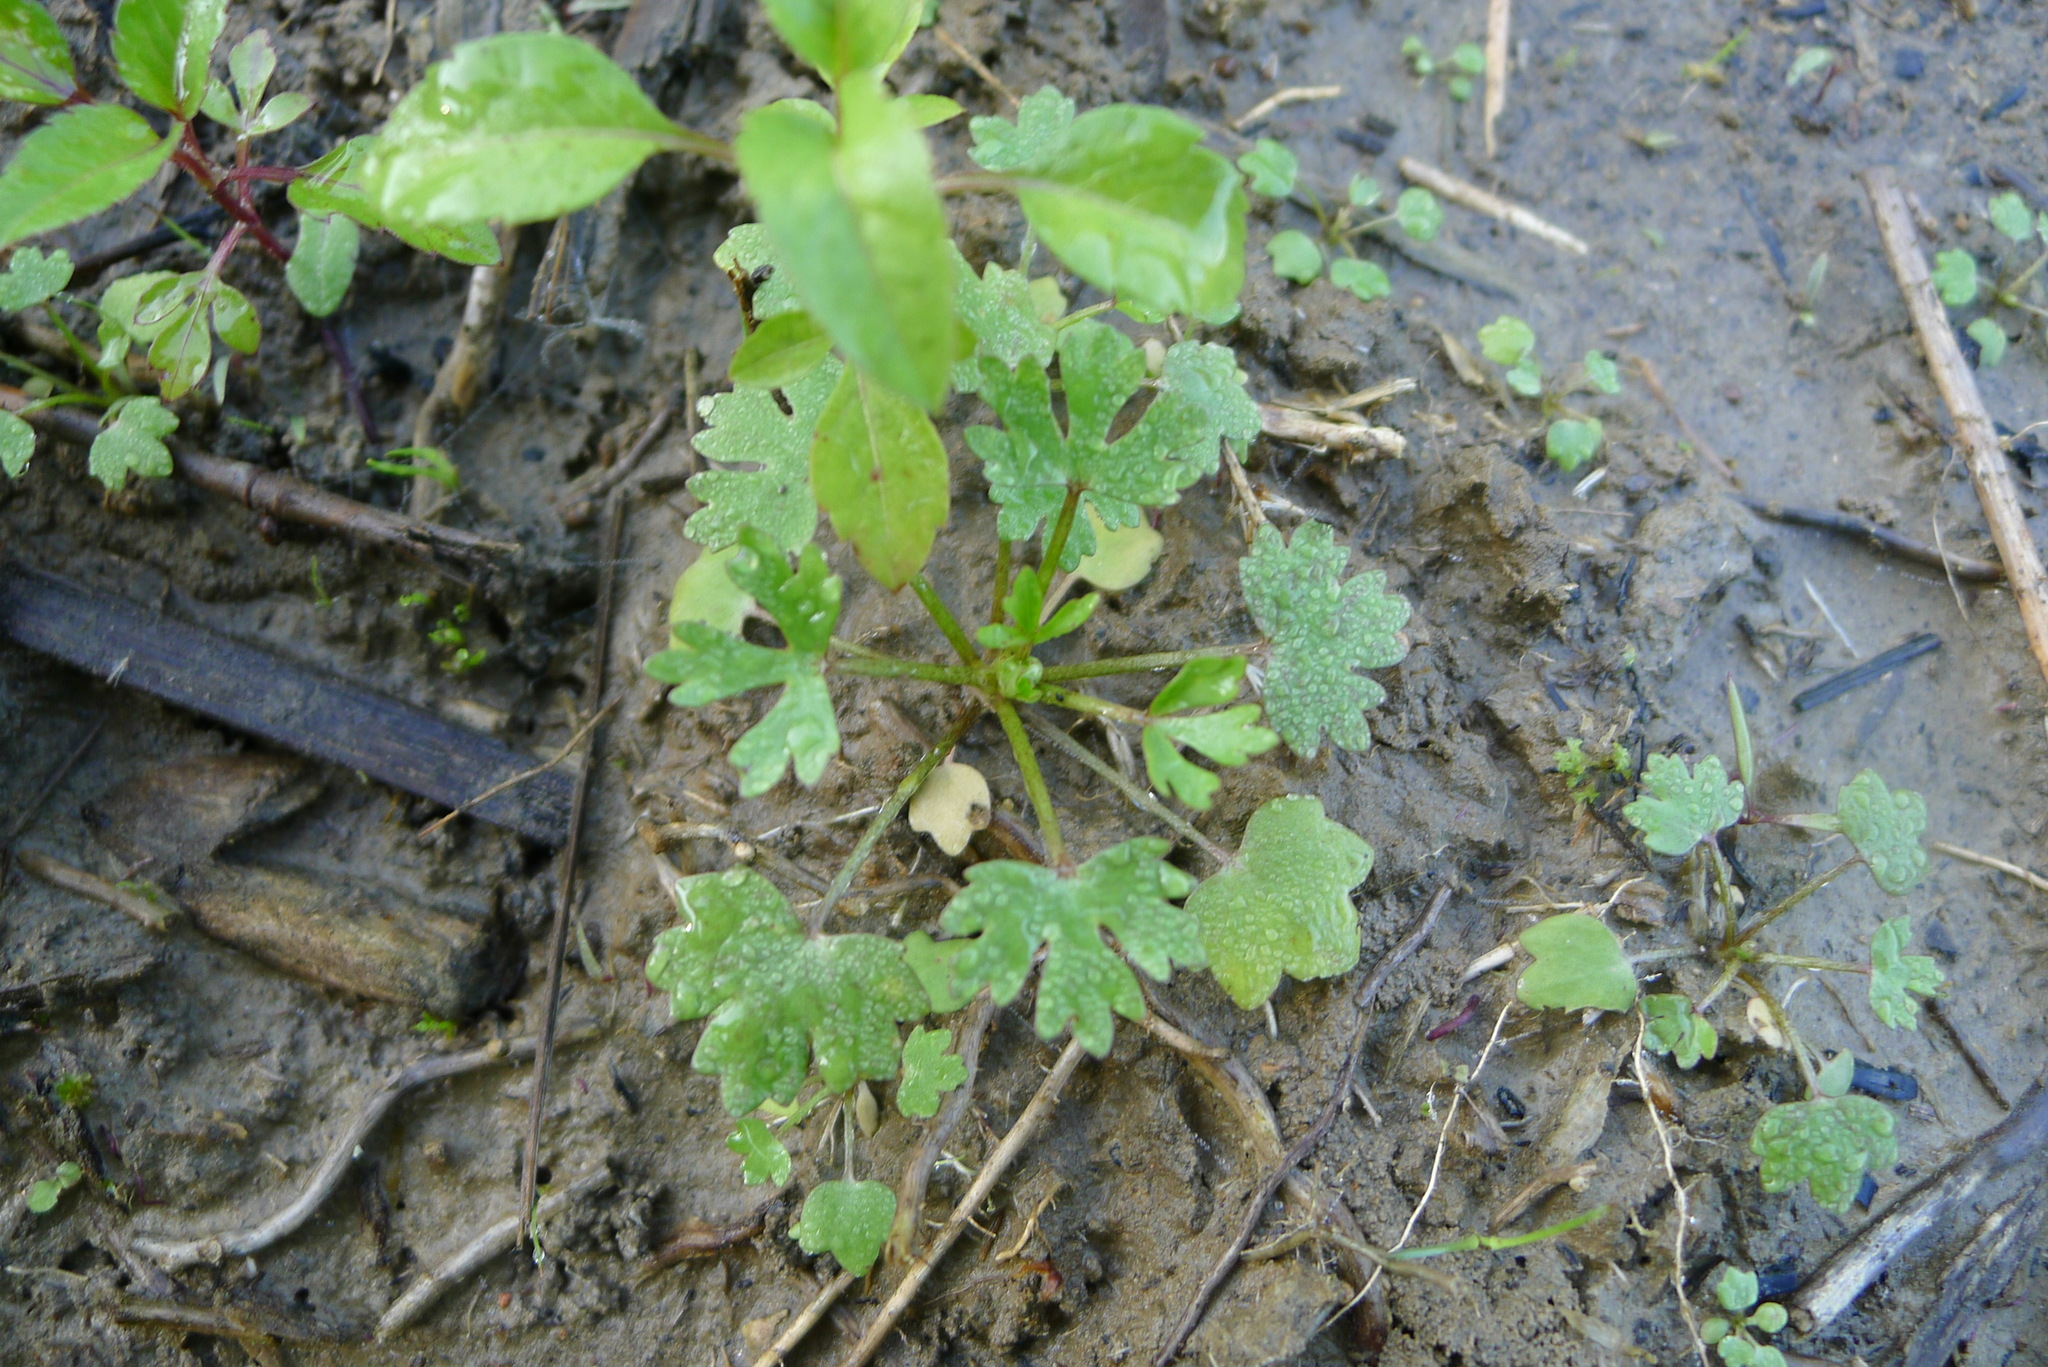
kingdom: Plantae
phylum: Tracheophyta
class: Magnoliopsida
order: Ranunculales
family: Ranunculaceae
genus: Ranunculus
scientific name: Ranunculus sceleratus
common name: Celery-leaved buttercup
